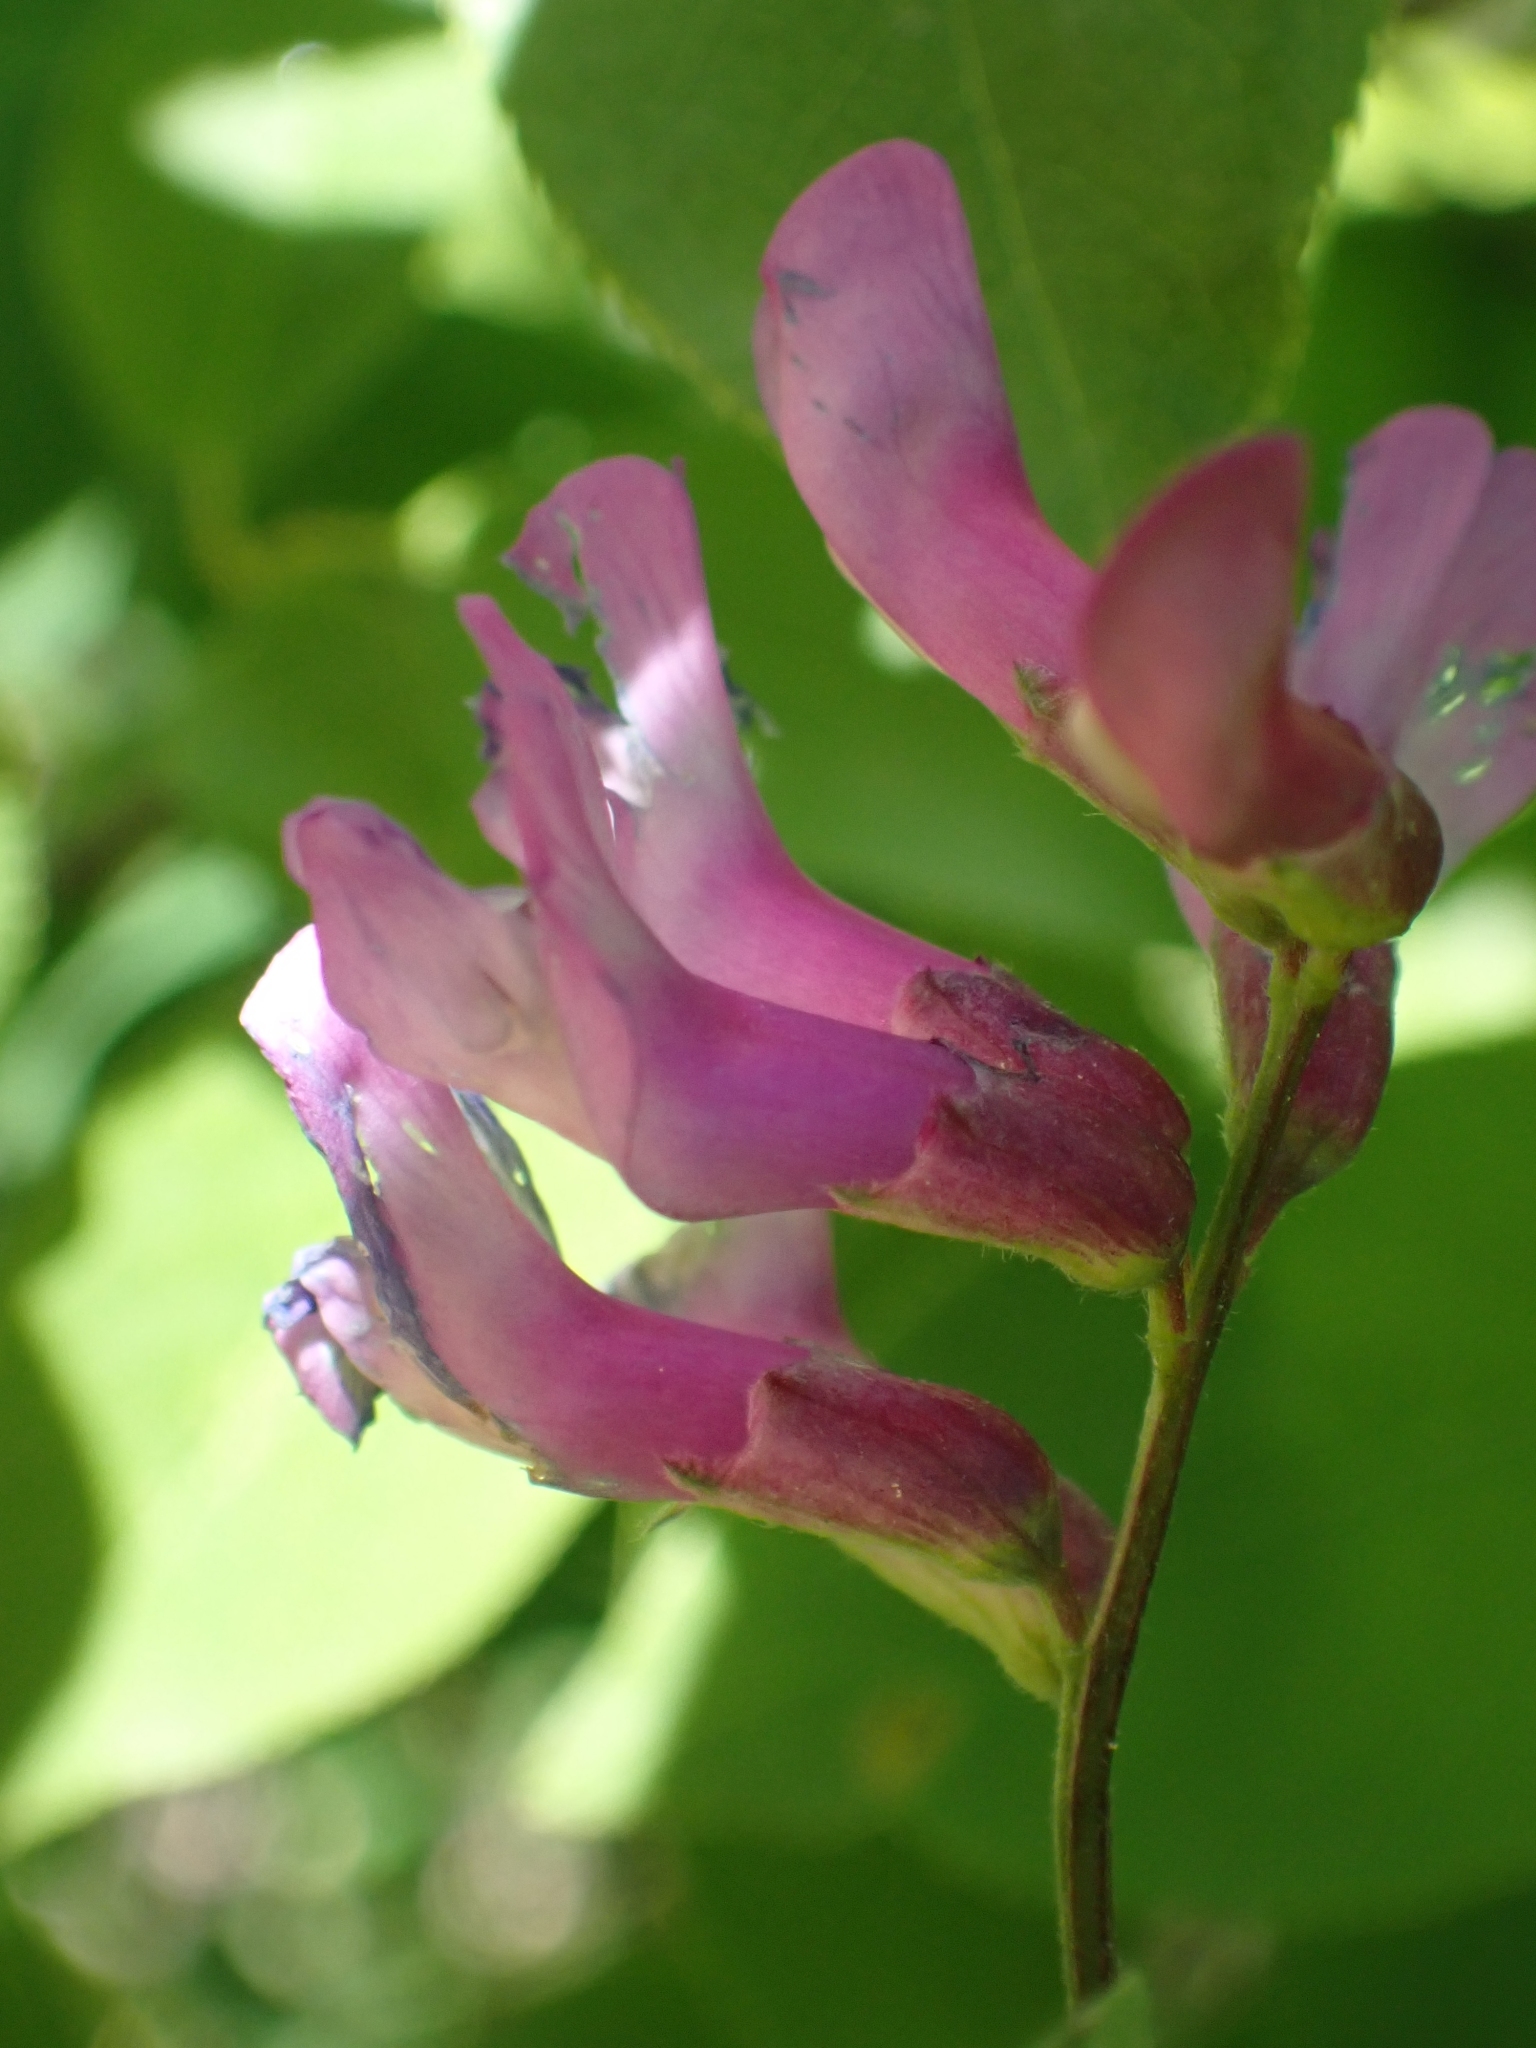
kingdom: Plantae
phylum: Tracheophyta
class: Magnoliopsida
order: Fabales
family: Fabaceae
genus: Vicia
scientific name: Vicia americana
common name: American vetch
